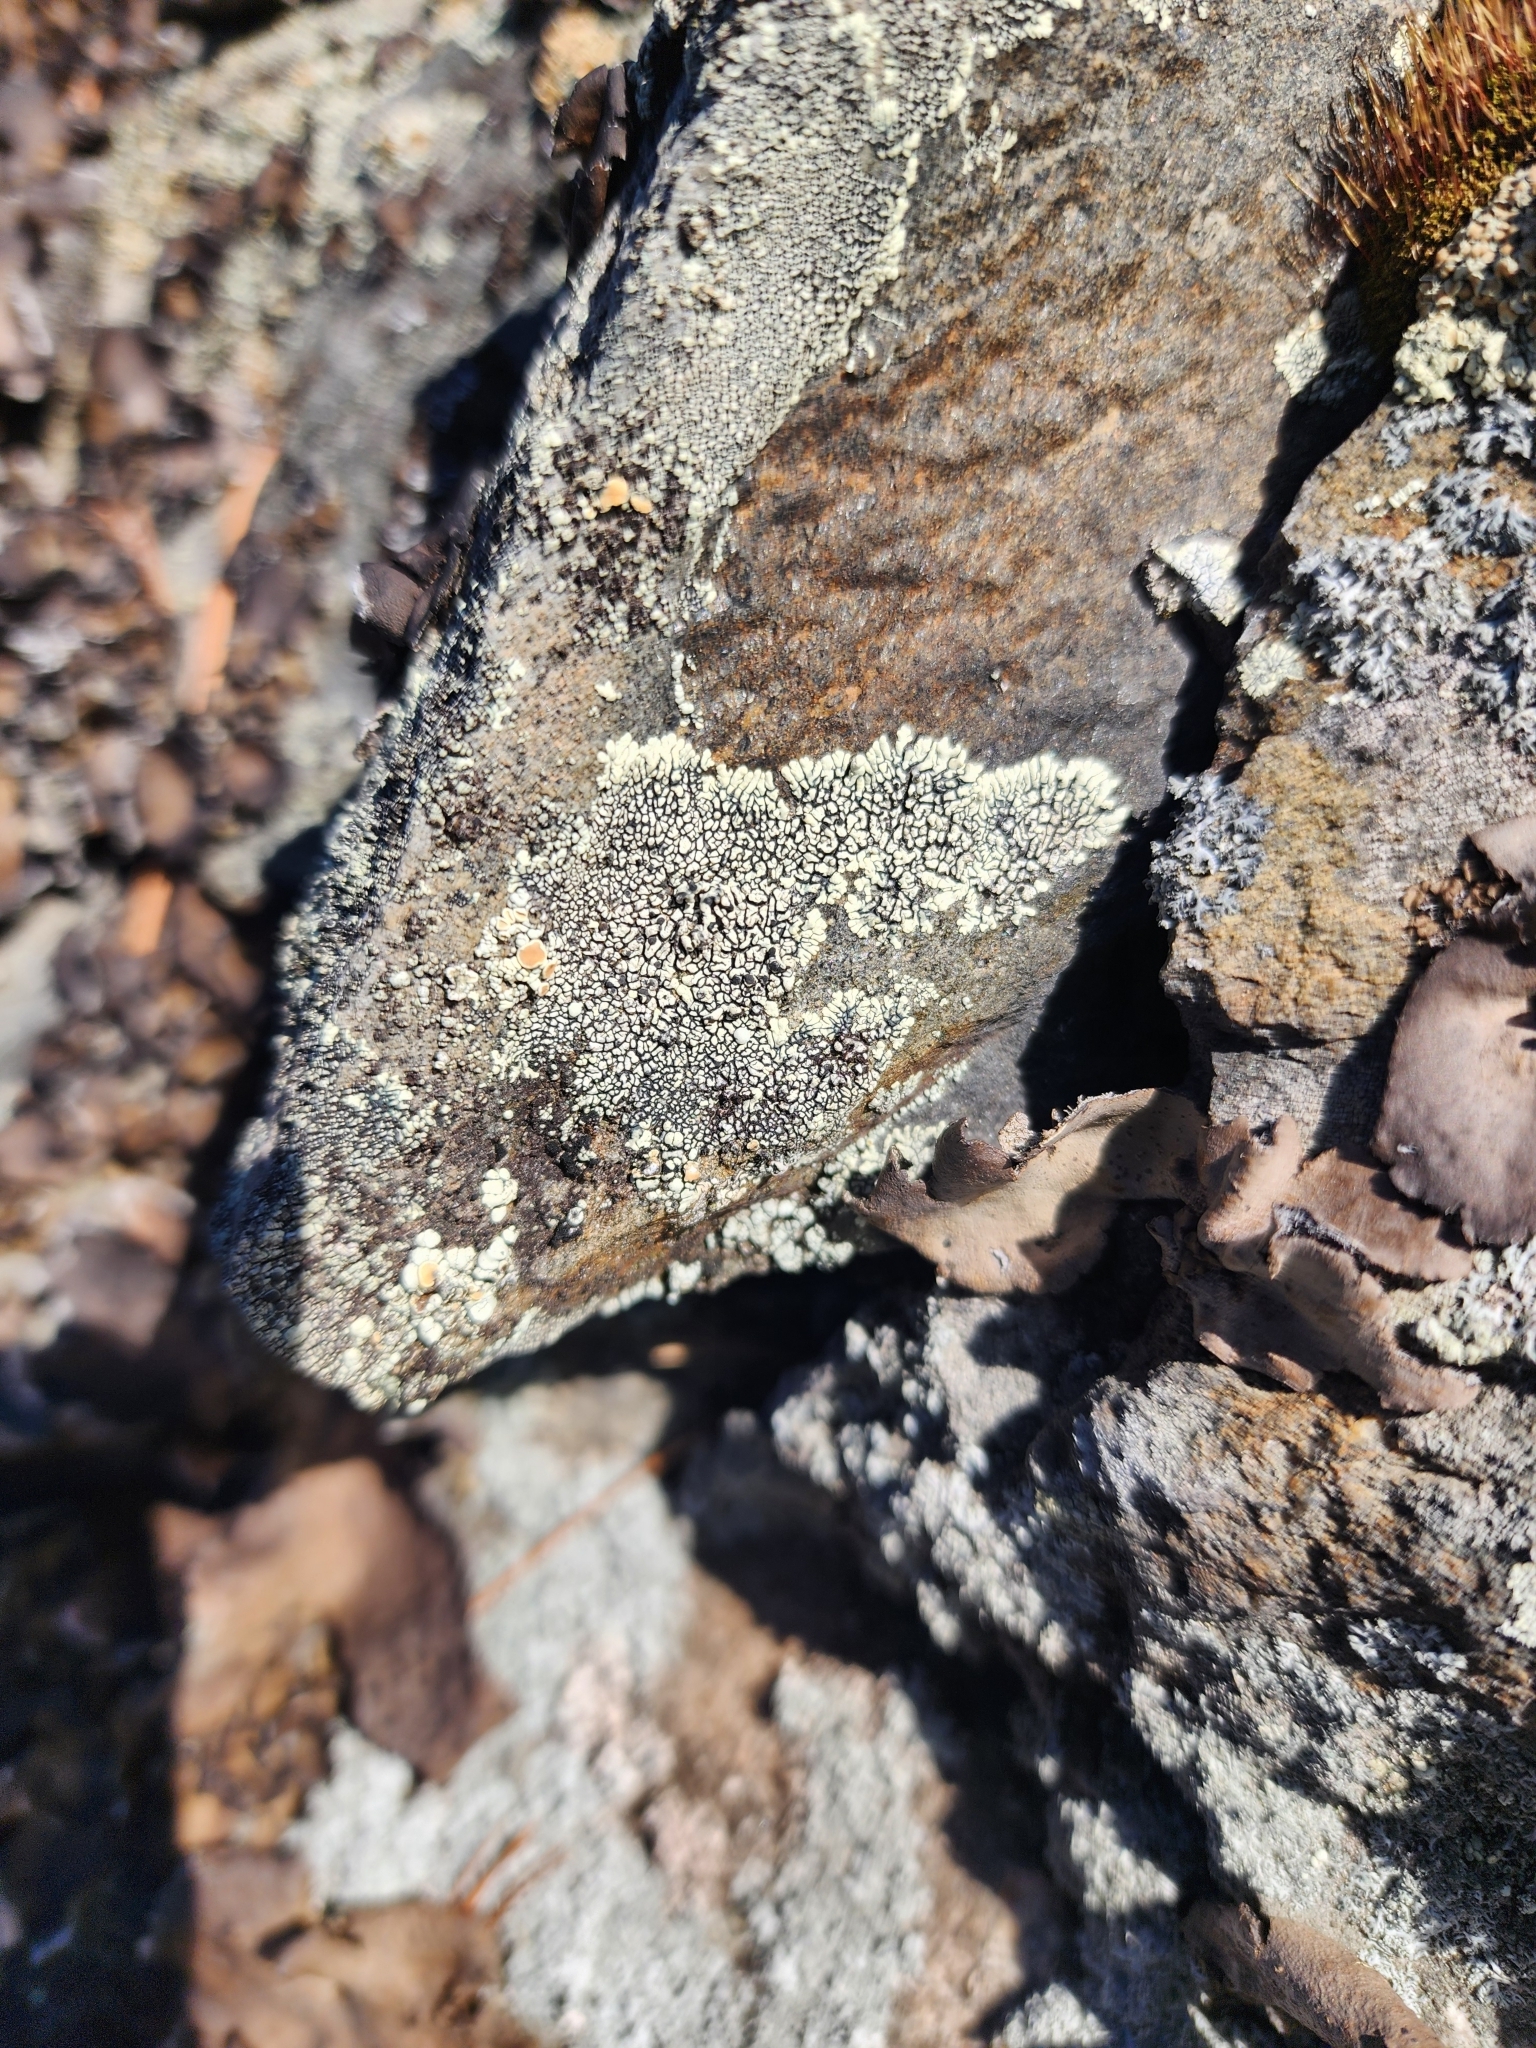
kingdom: Fungi
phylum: Ascomycota
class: Lecanoromycetes
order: Caliciales
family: Caliciaceae
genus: Dimelaena
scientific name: Dimelaena oreina
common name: Golden moonglow lichen
